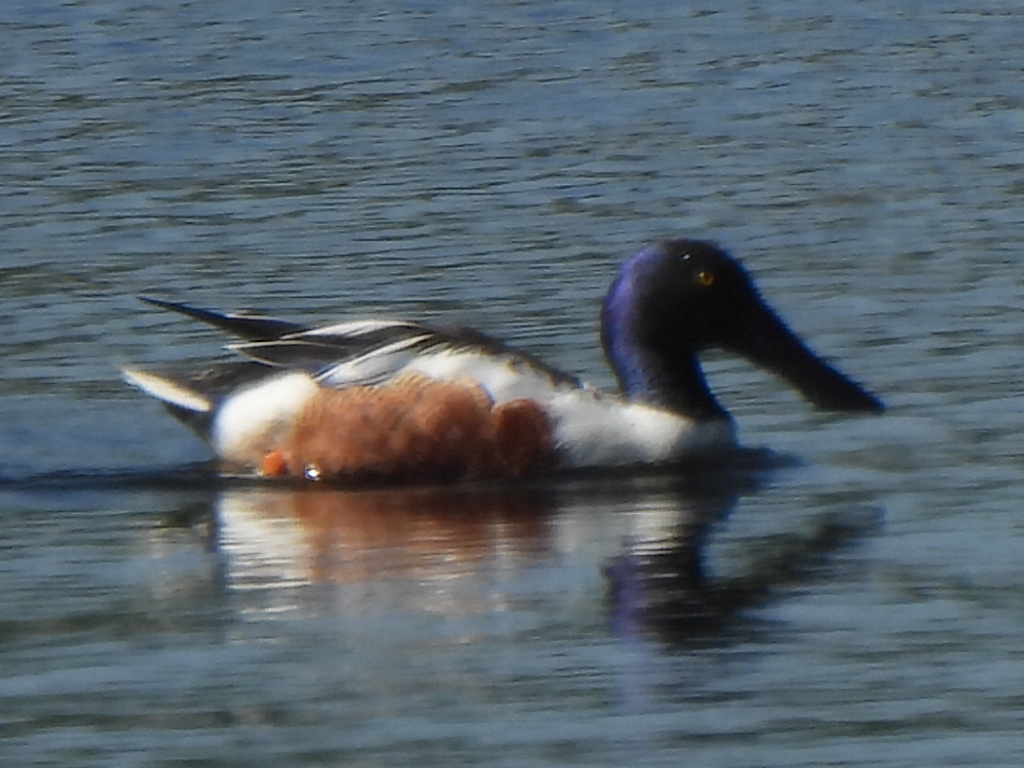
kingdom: Animalia
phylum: Chordata
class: Aves
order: Anseriformes
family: Anatidae
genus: Spatula
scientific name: Spatula clypeata
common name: Northern shoveler
